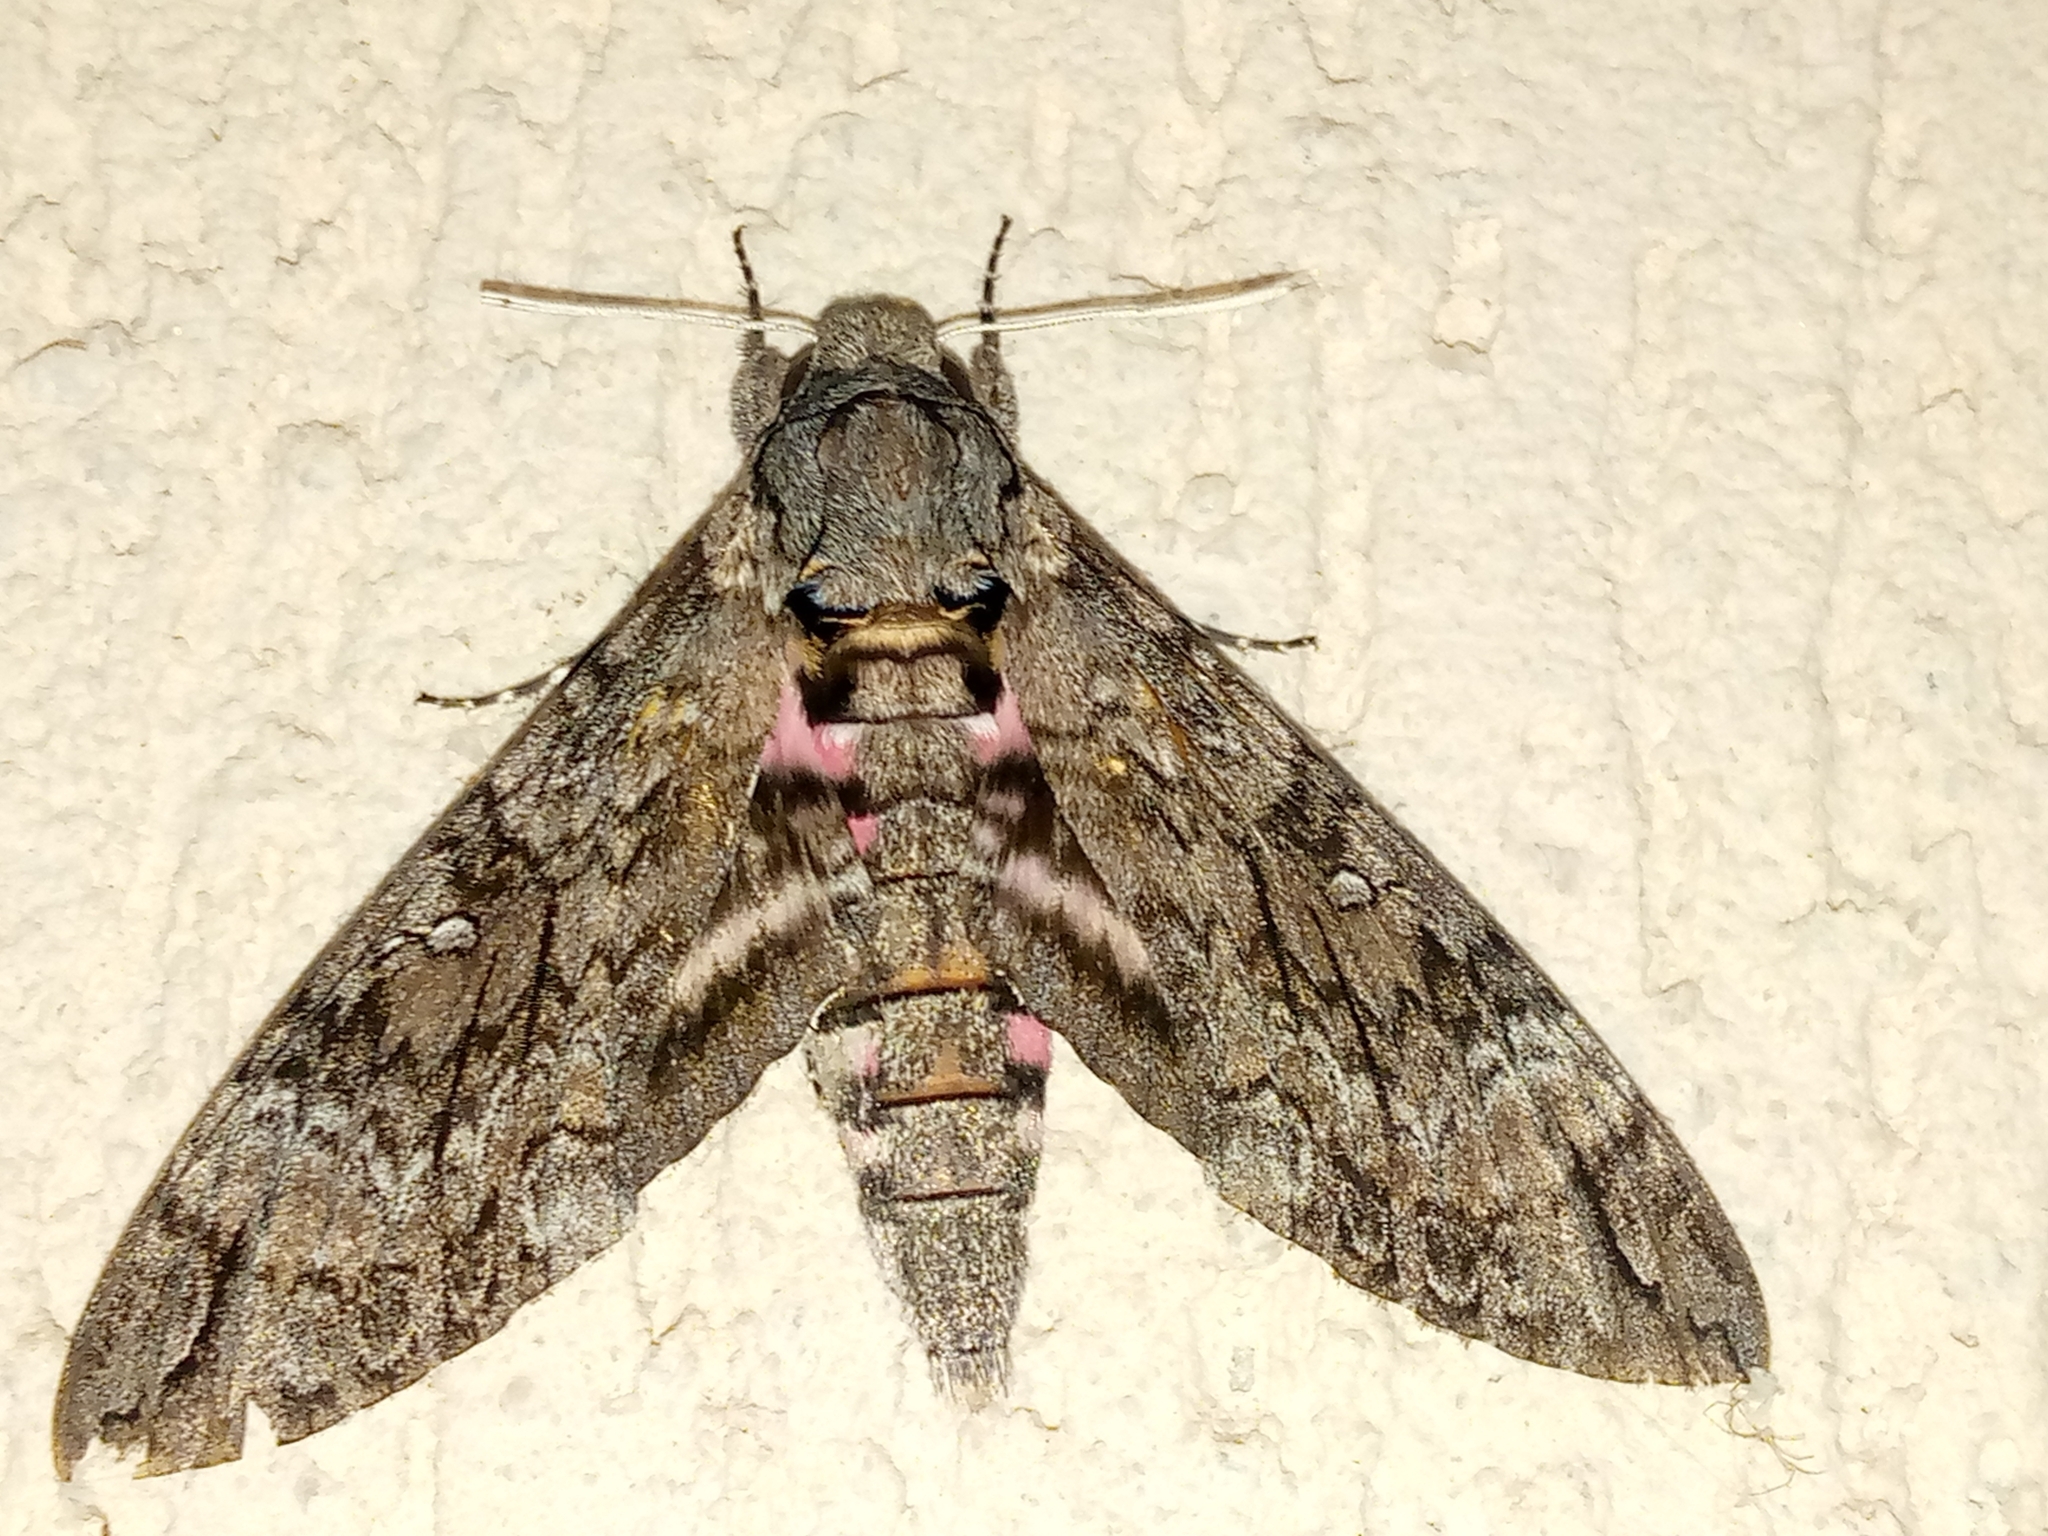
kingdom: Animalia
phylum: Arthropoda
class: Insecta
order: Lepidoptera
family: Sphingidae
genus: Agrius
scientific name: Agrius cingulata
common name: Pink-spotted hawkmoth
